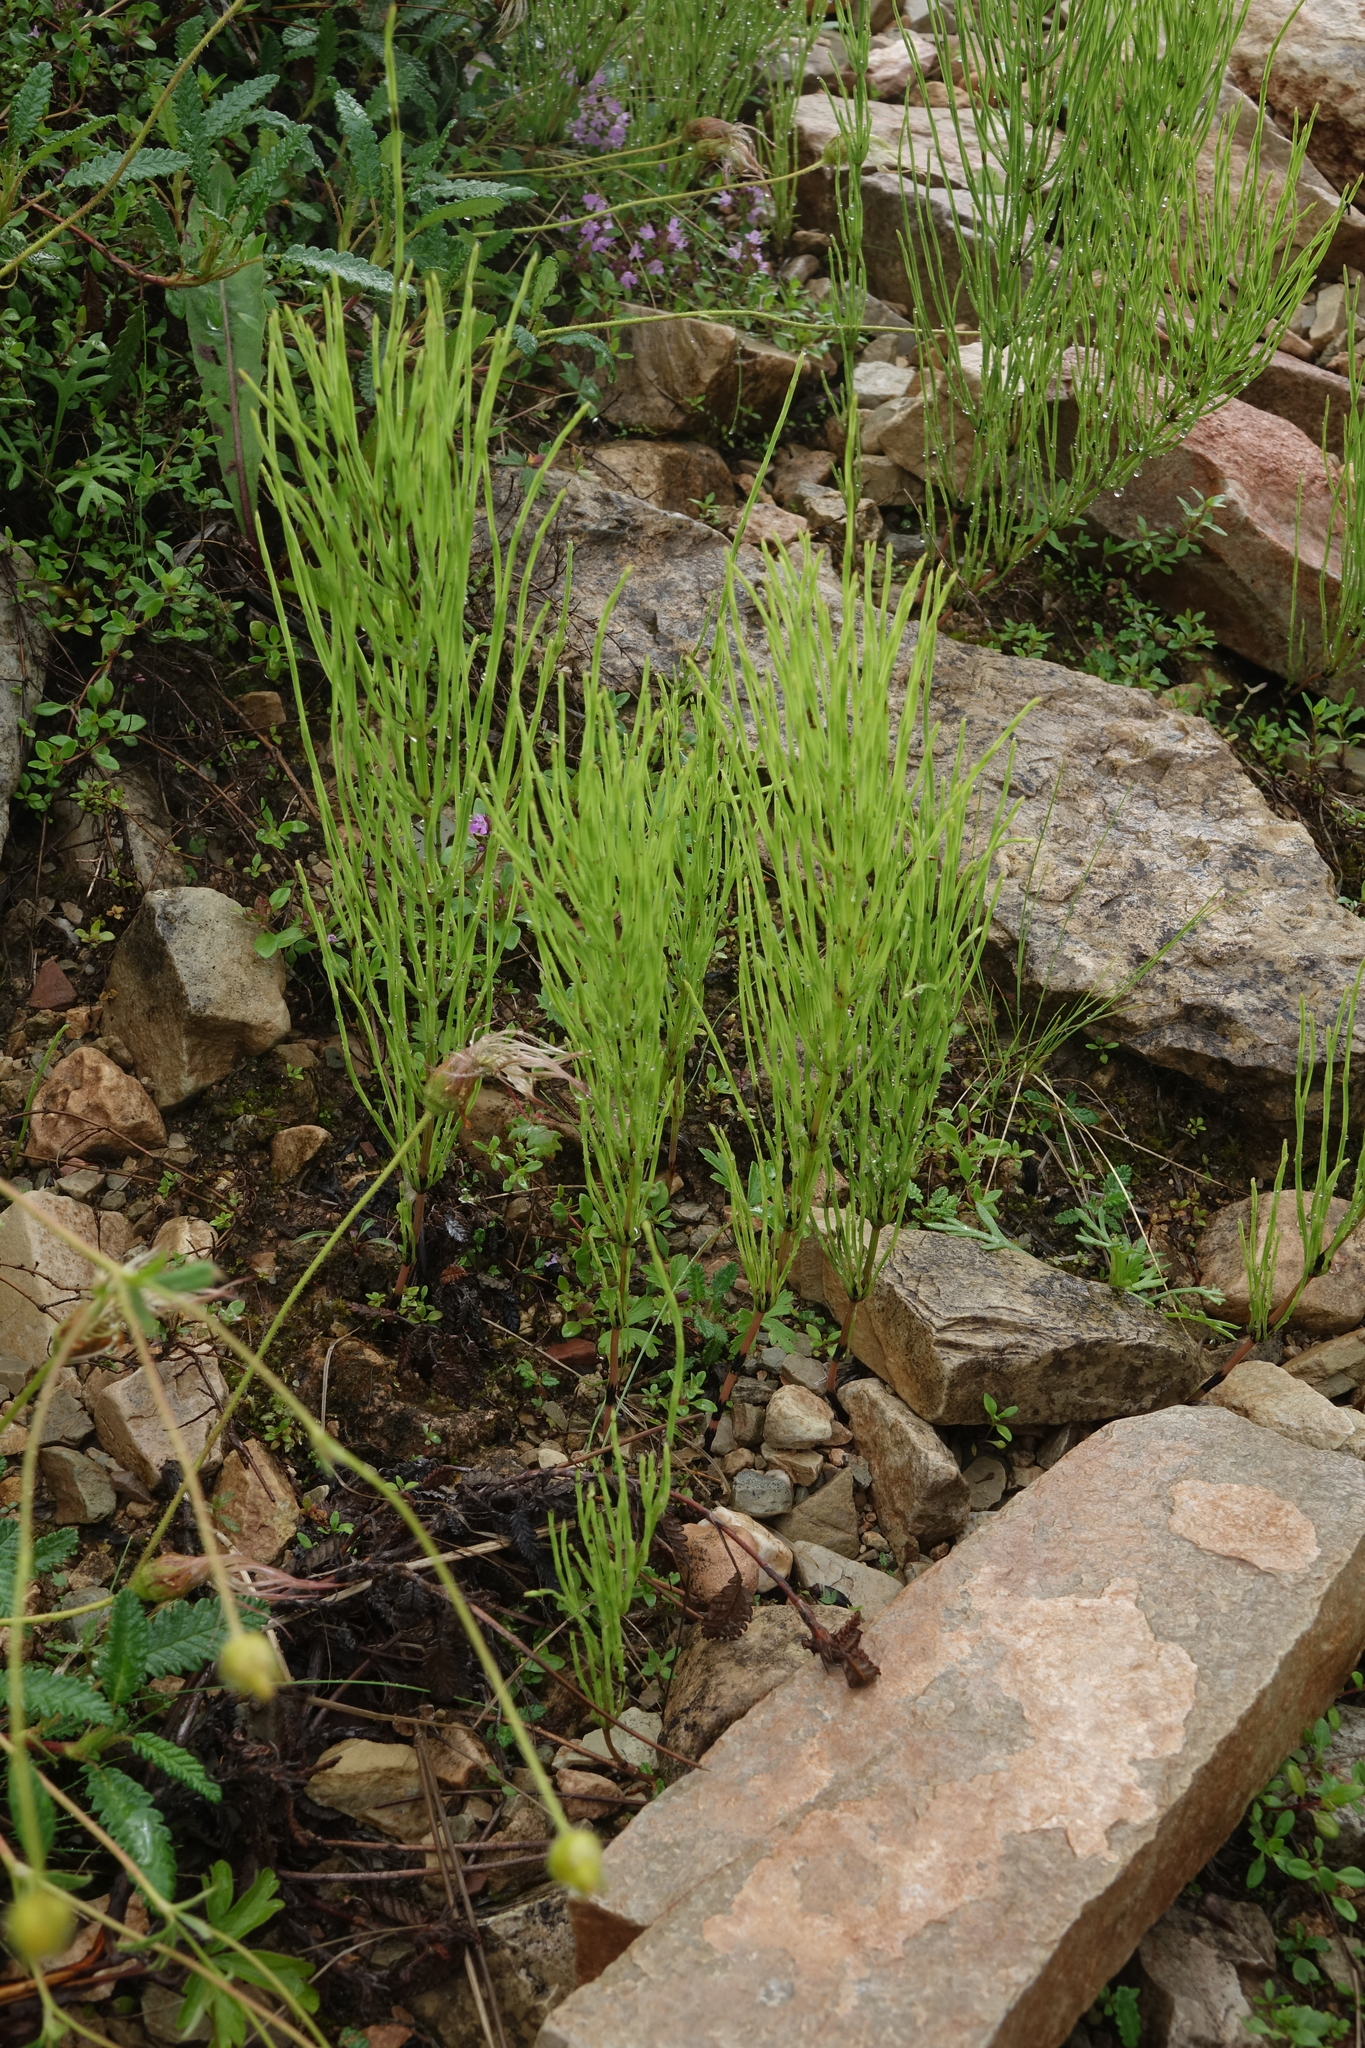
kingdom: Plantae
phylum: Tracheophyta
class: Polypodiopsida
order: Equisetales
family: Equisetaceae
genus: Equisetum
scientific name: Equisetum arvense
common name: Field horsetail
